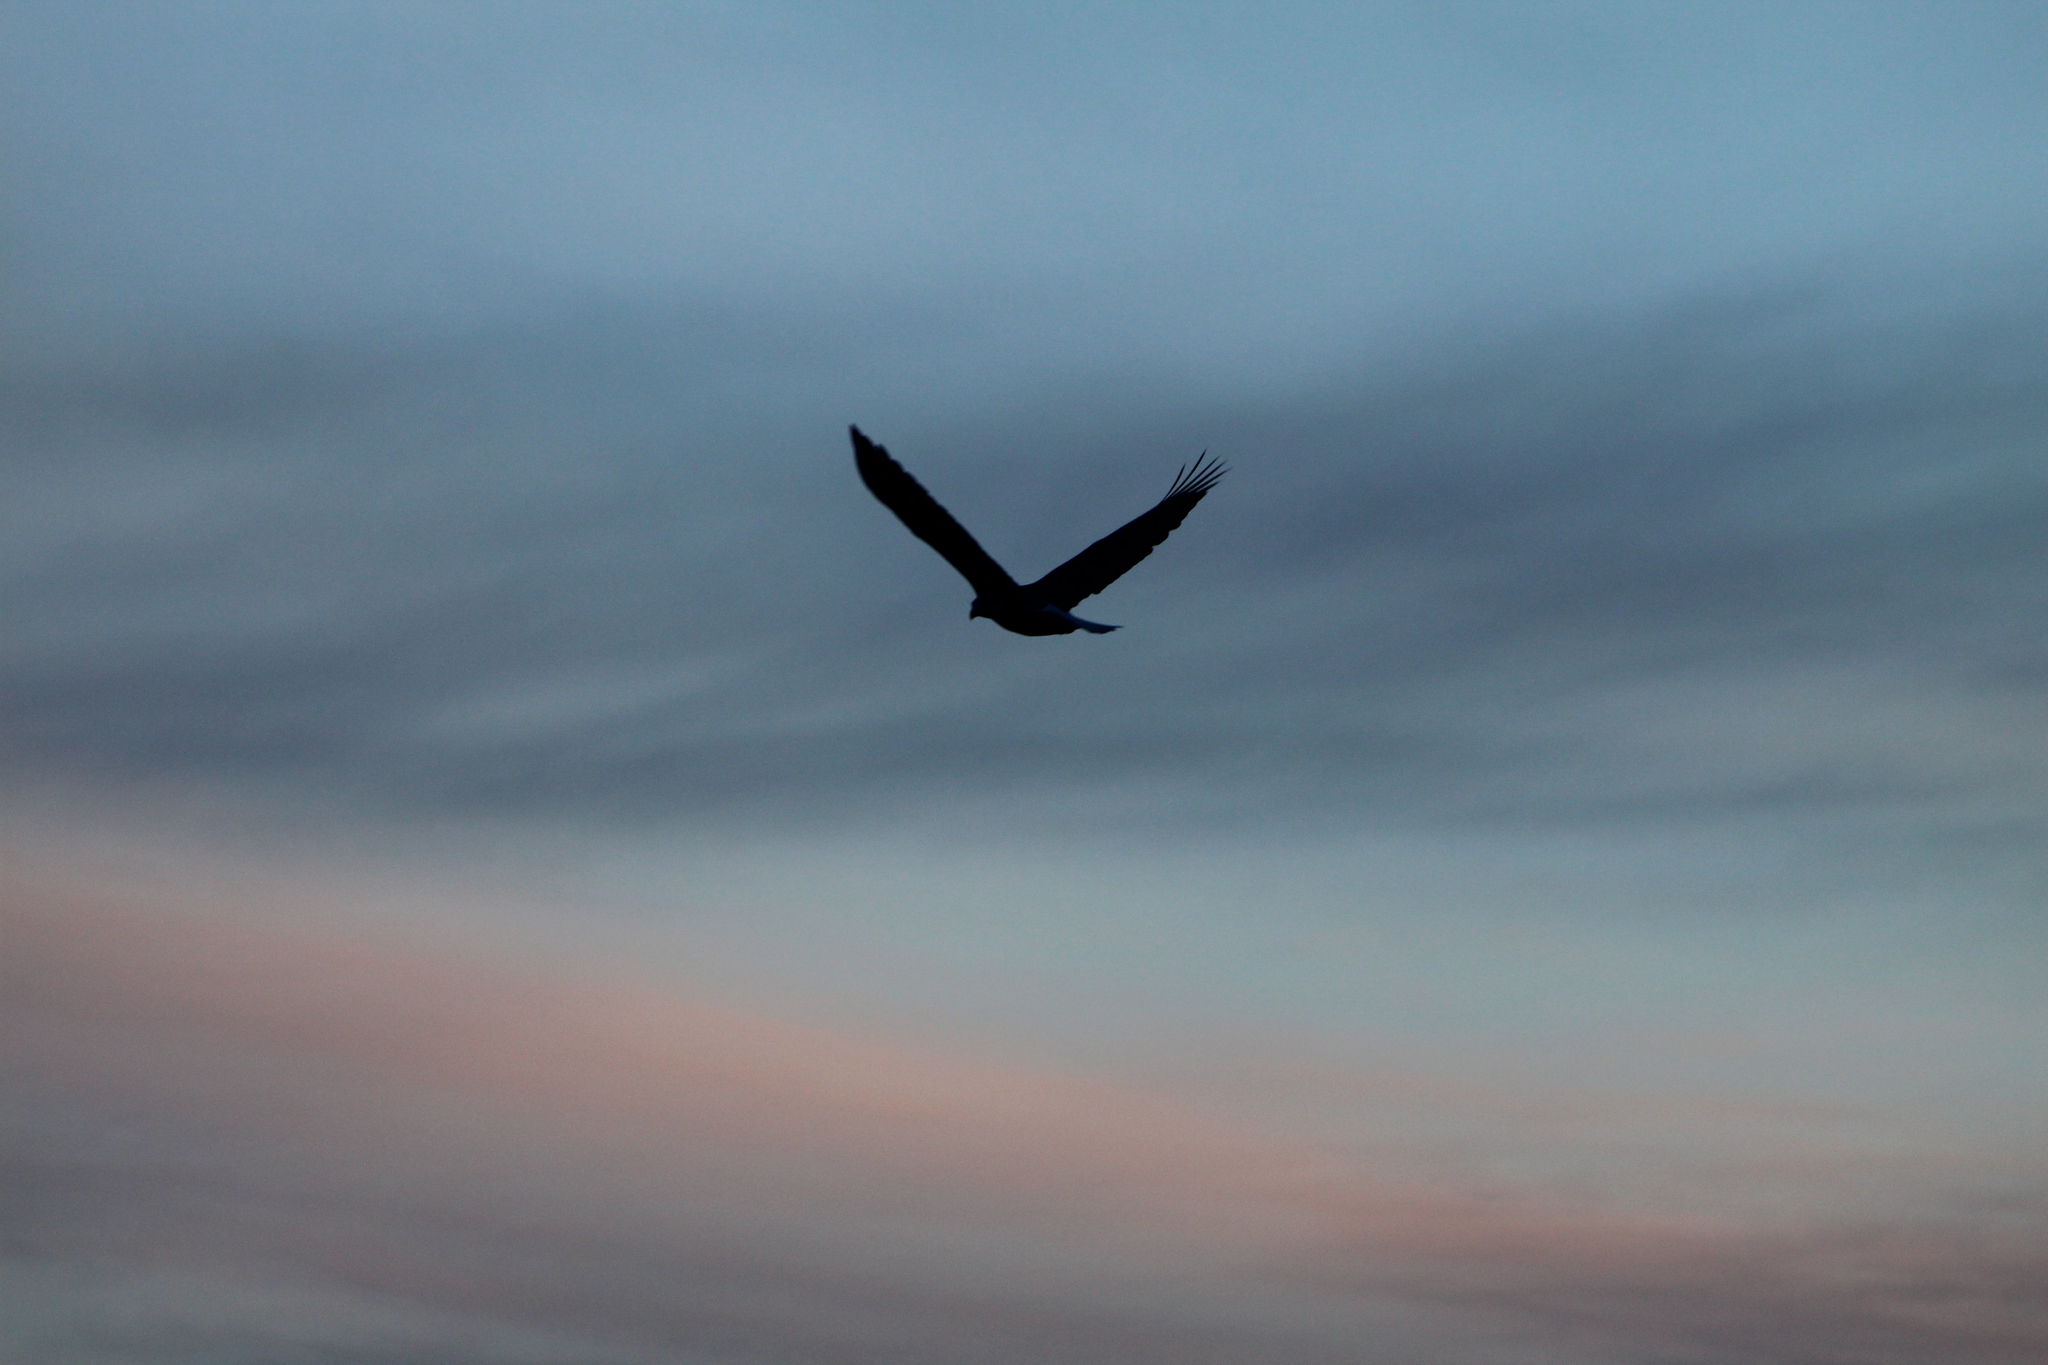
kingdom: Animalia
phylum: Chordata
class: Aves
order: Accipitriformes
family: Accipitridae
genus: Haliaeetus
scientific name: Haliaeetus leucocephalus
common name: Bald eagle
